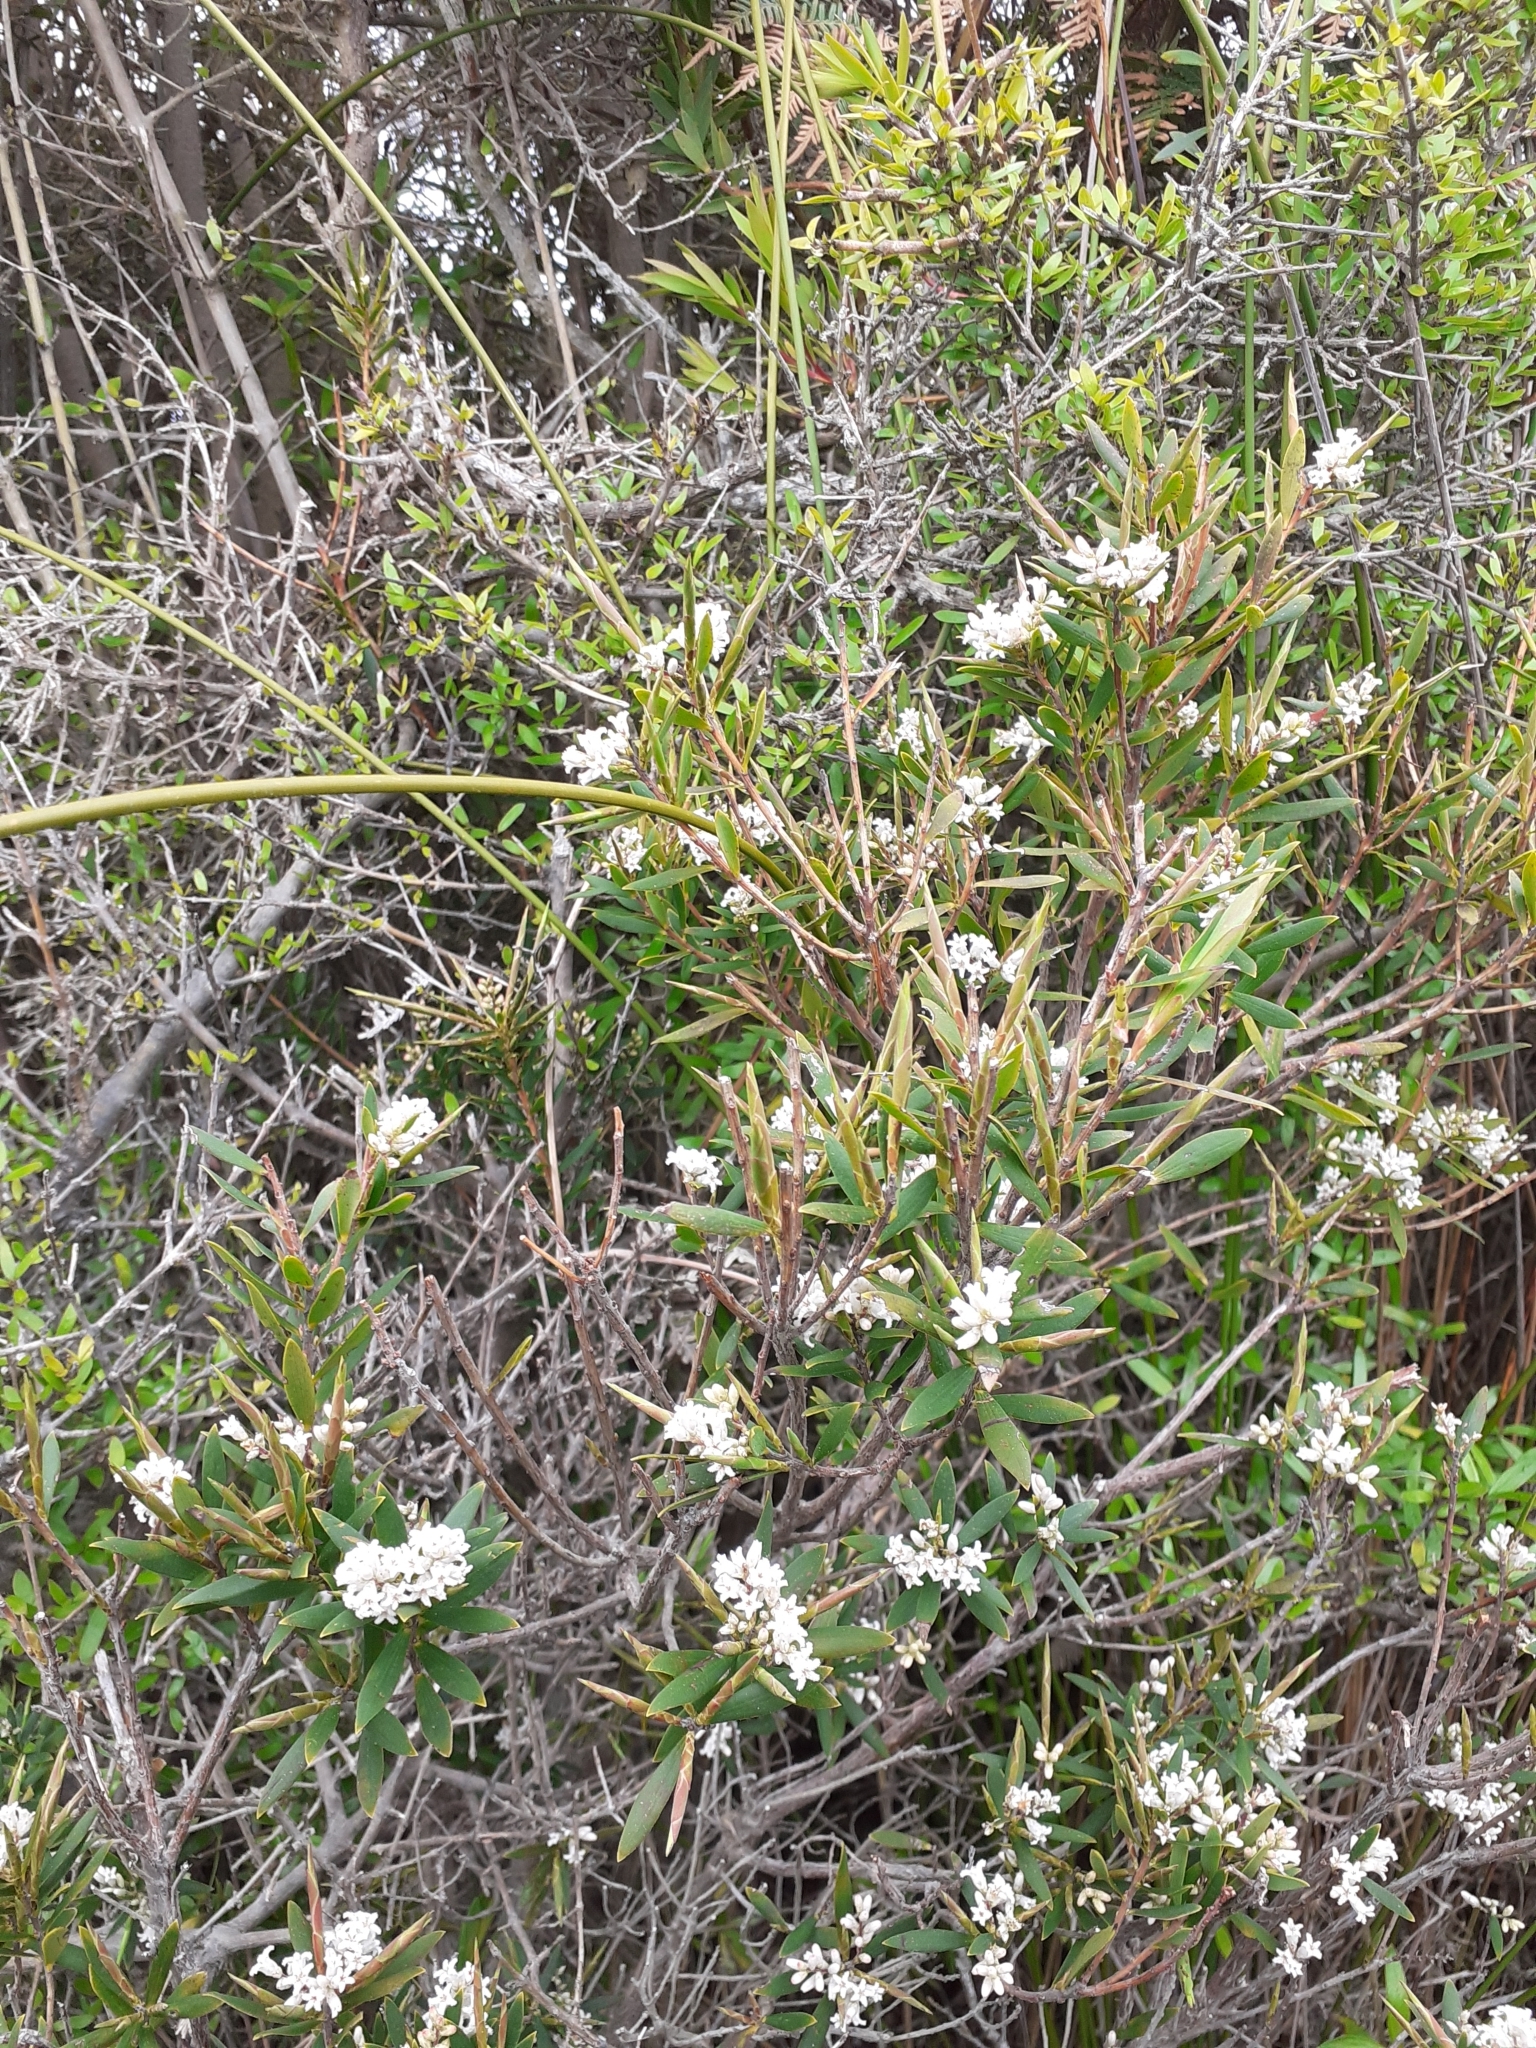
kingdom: Plantae
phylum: Tracheophyta
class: Magnoliopsida
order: Ericales
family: Ericaceae
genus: Leptecophylla
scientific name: Leptecophylla parvifolia
